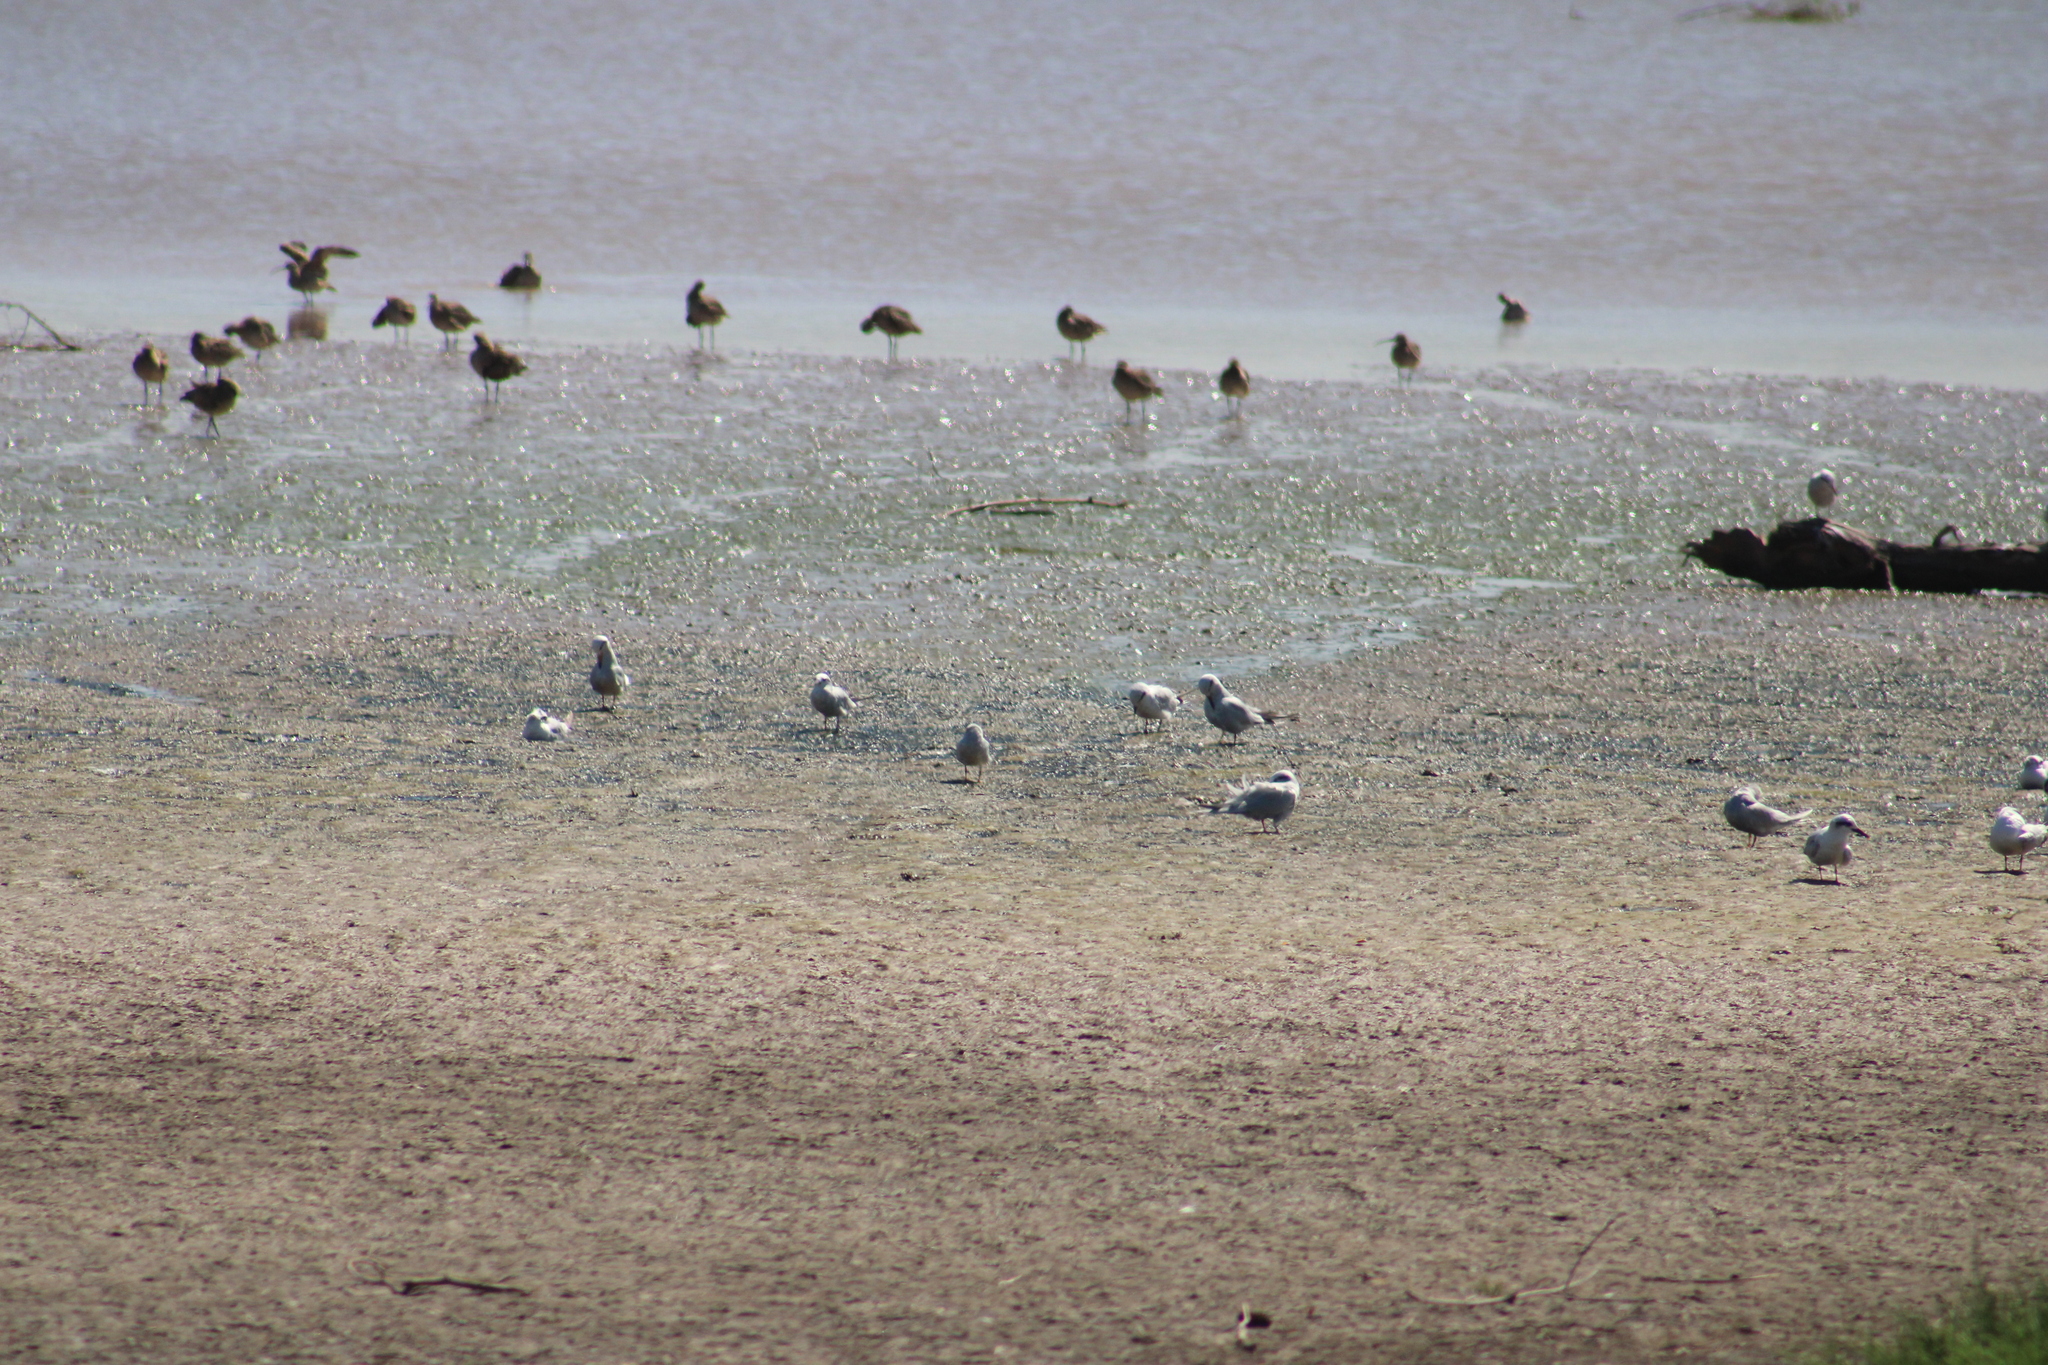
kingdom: Animalia
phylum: Chordata
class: Aves
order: Charadriiformes
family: Laridae
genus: Sterna
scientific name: Sterna trudeaui
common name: Snowy-crowned tern
